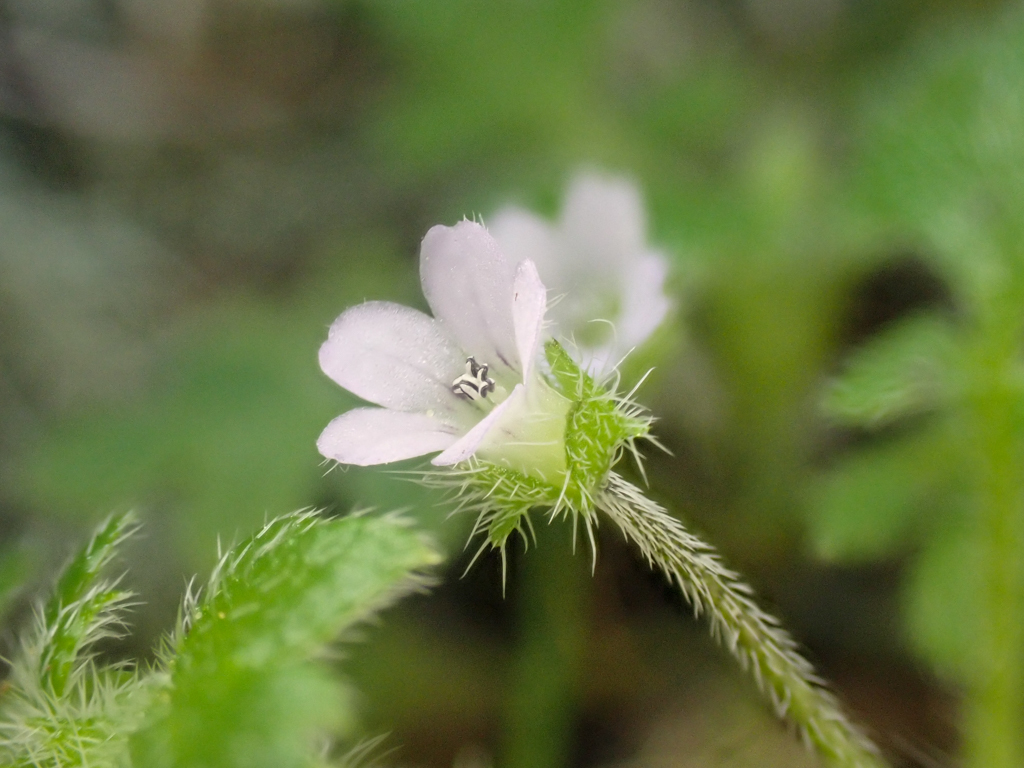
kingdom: Plantae
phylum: Tracheophyta
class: Magnoliopsida
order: Boraginales
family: Hydrophyllaceae
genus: Nemophila
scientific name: Nemophila parviflora
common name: Small-flowered baby-blue-eyes
